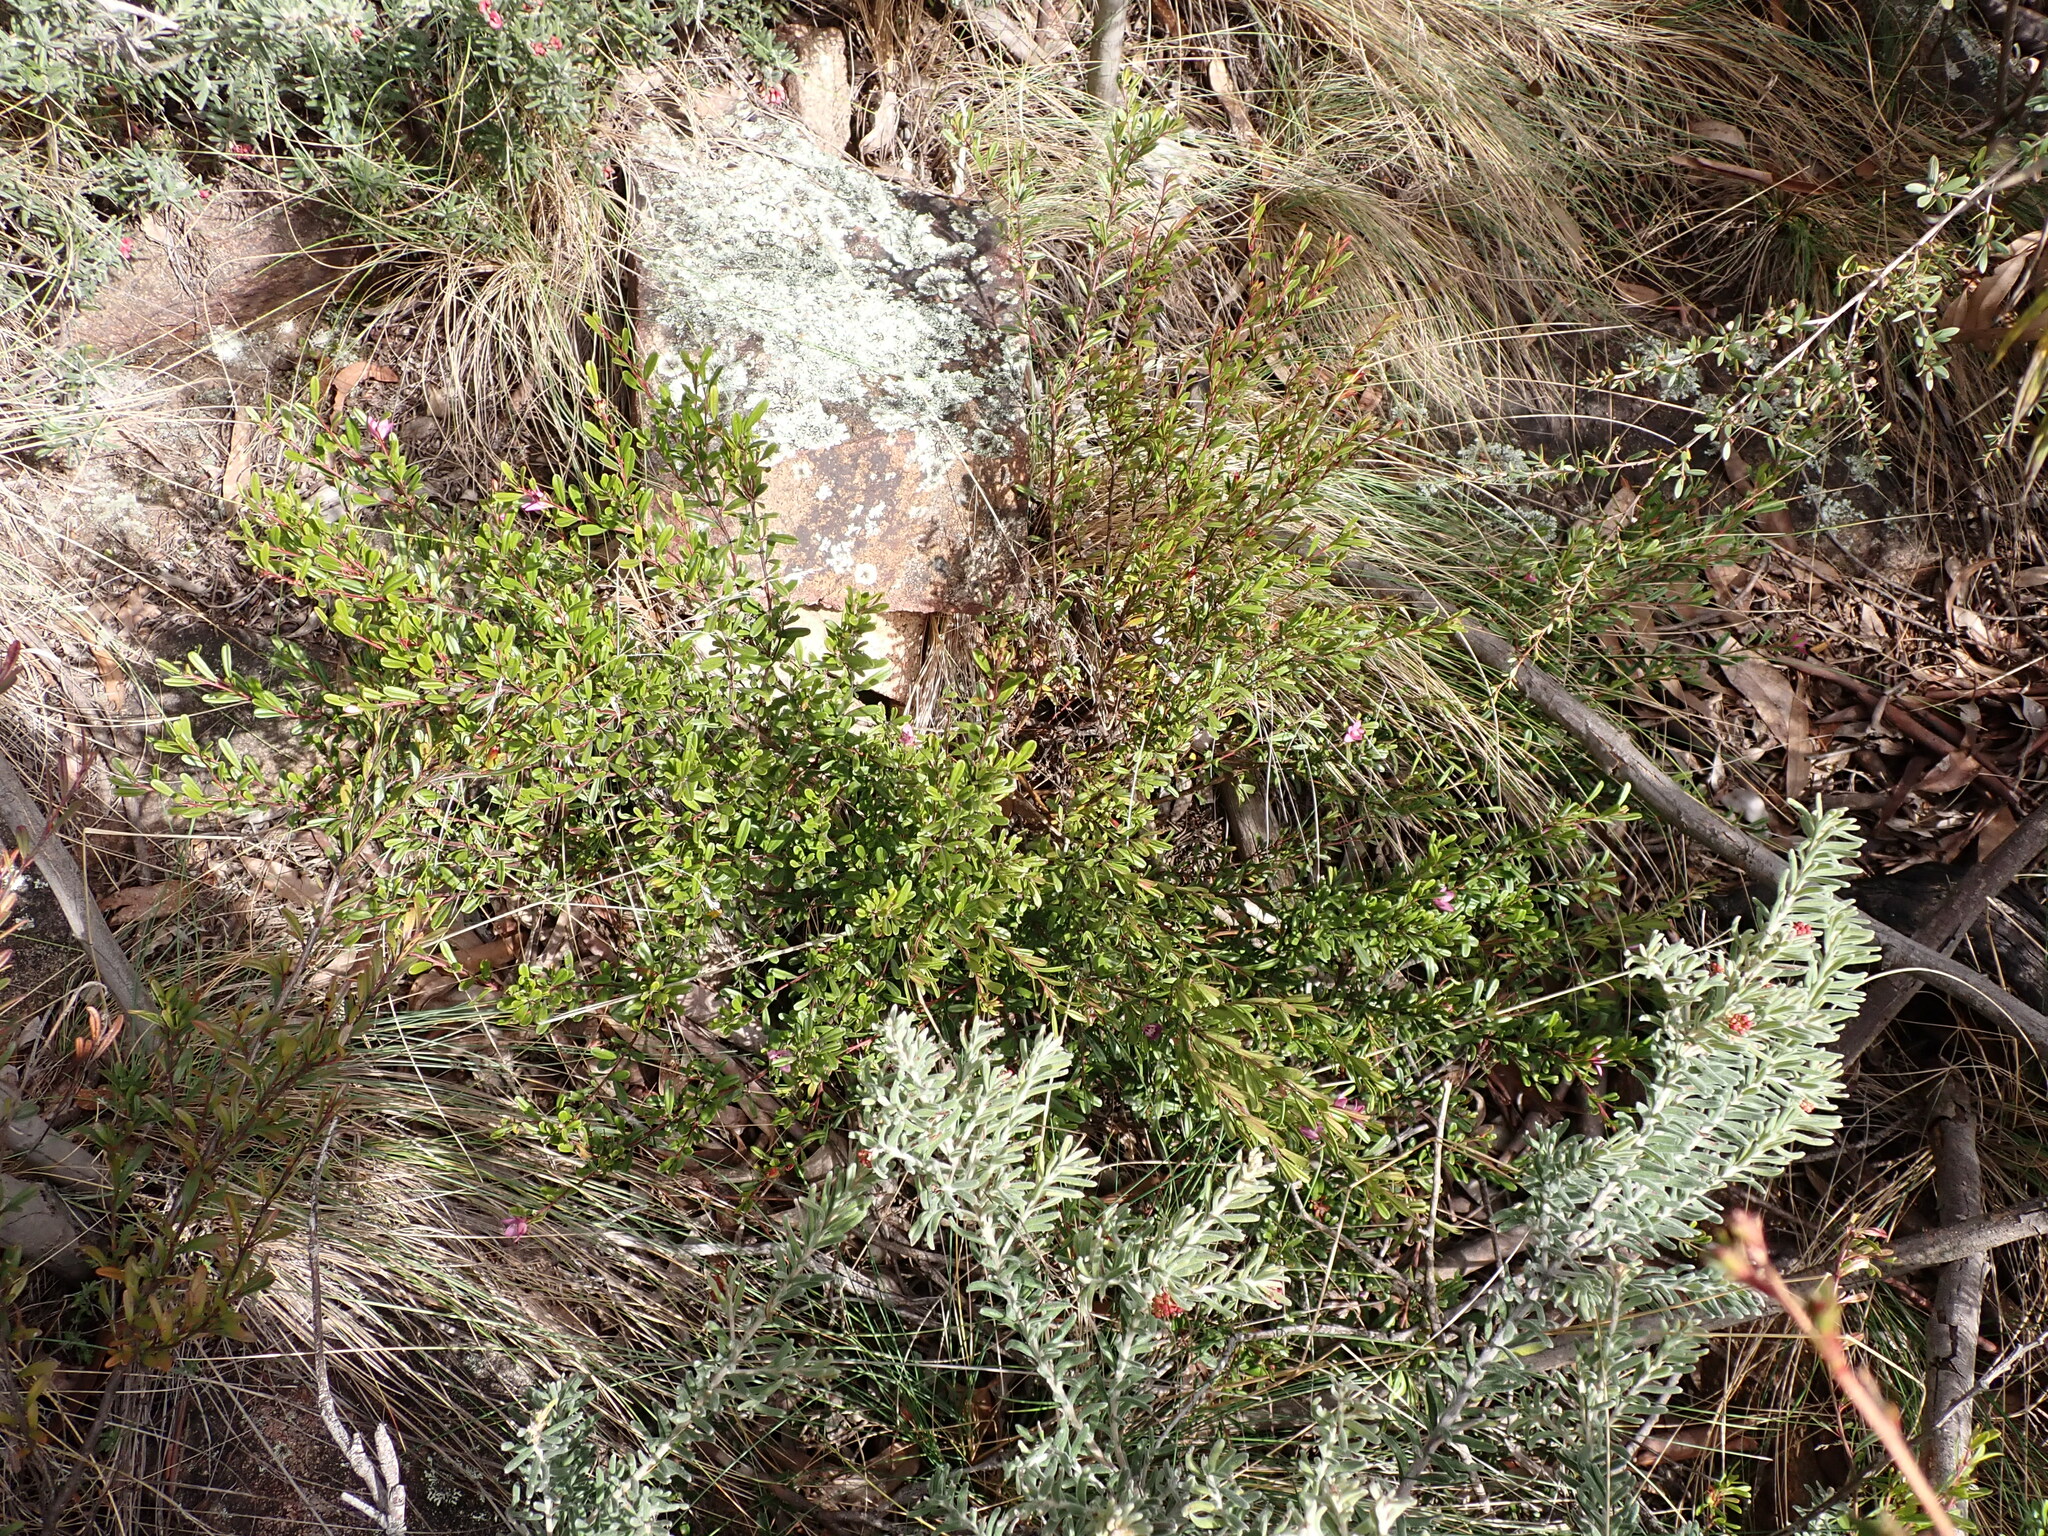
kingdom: Plantae
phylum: Tracheophyta
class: Magnoliopsida
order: Sapindales
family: Rutaceae
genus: Crowea
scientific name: Crowea exalata
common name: Small crowea
